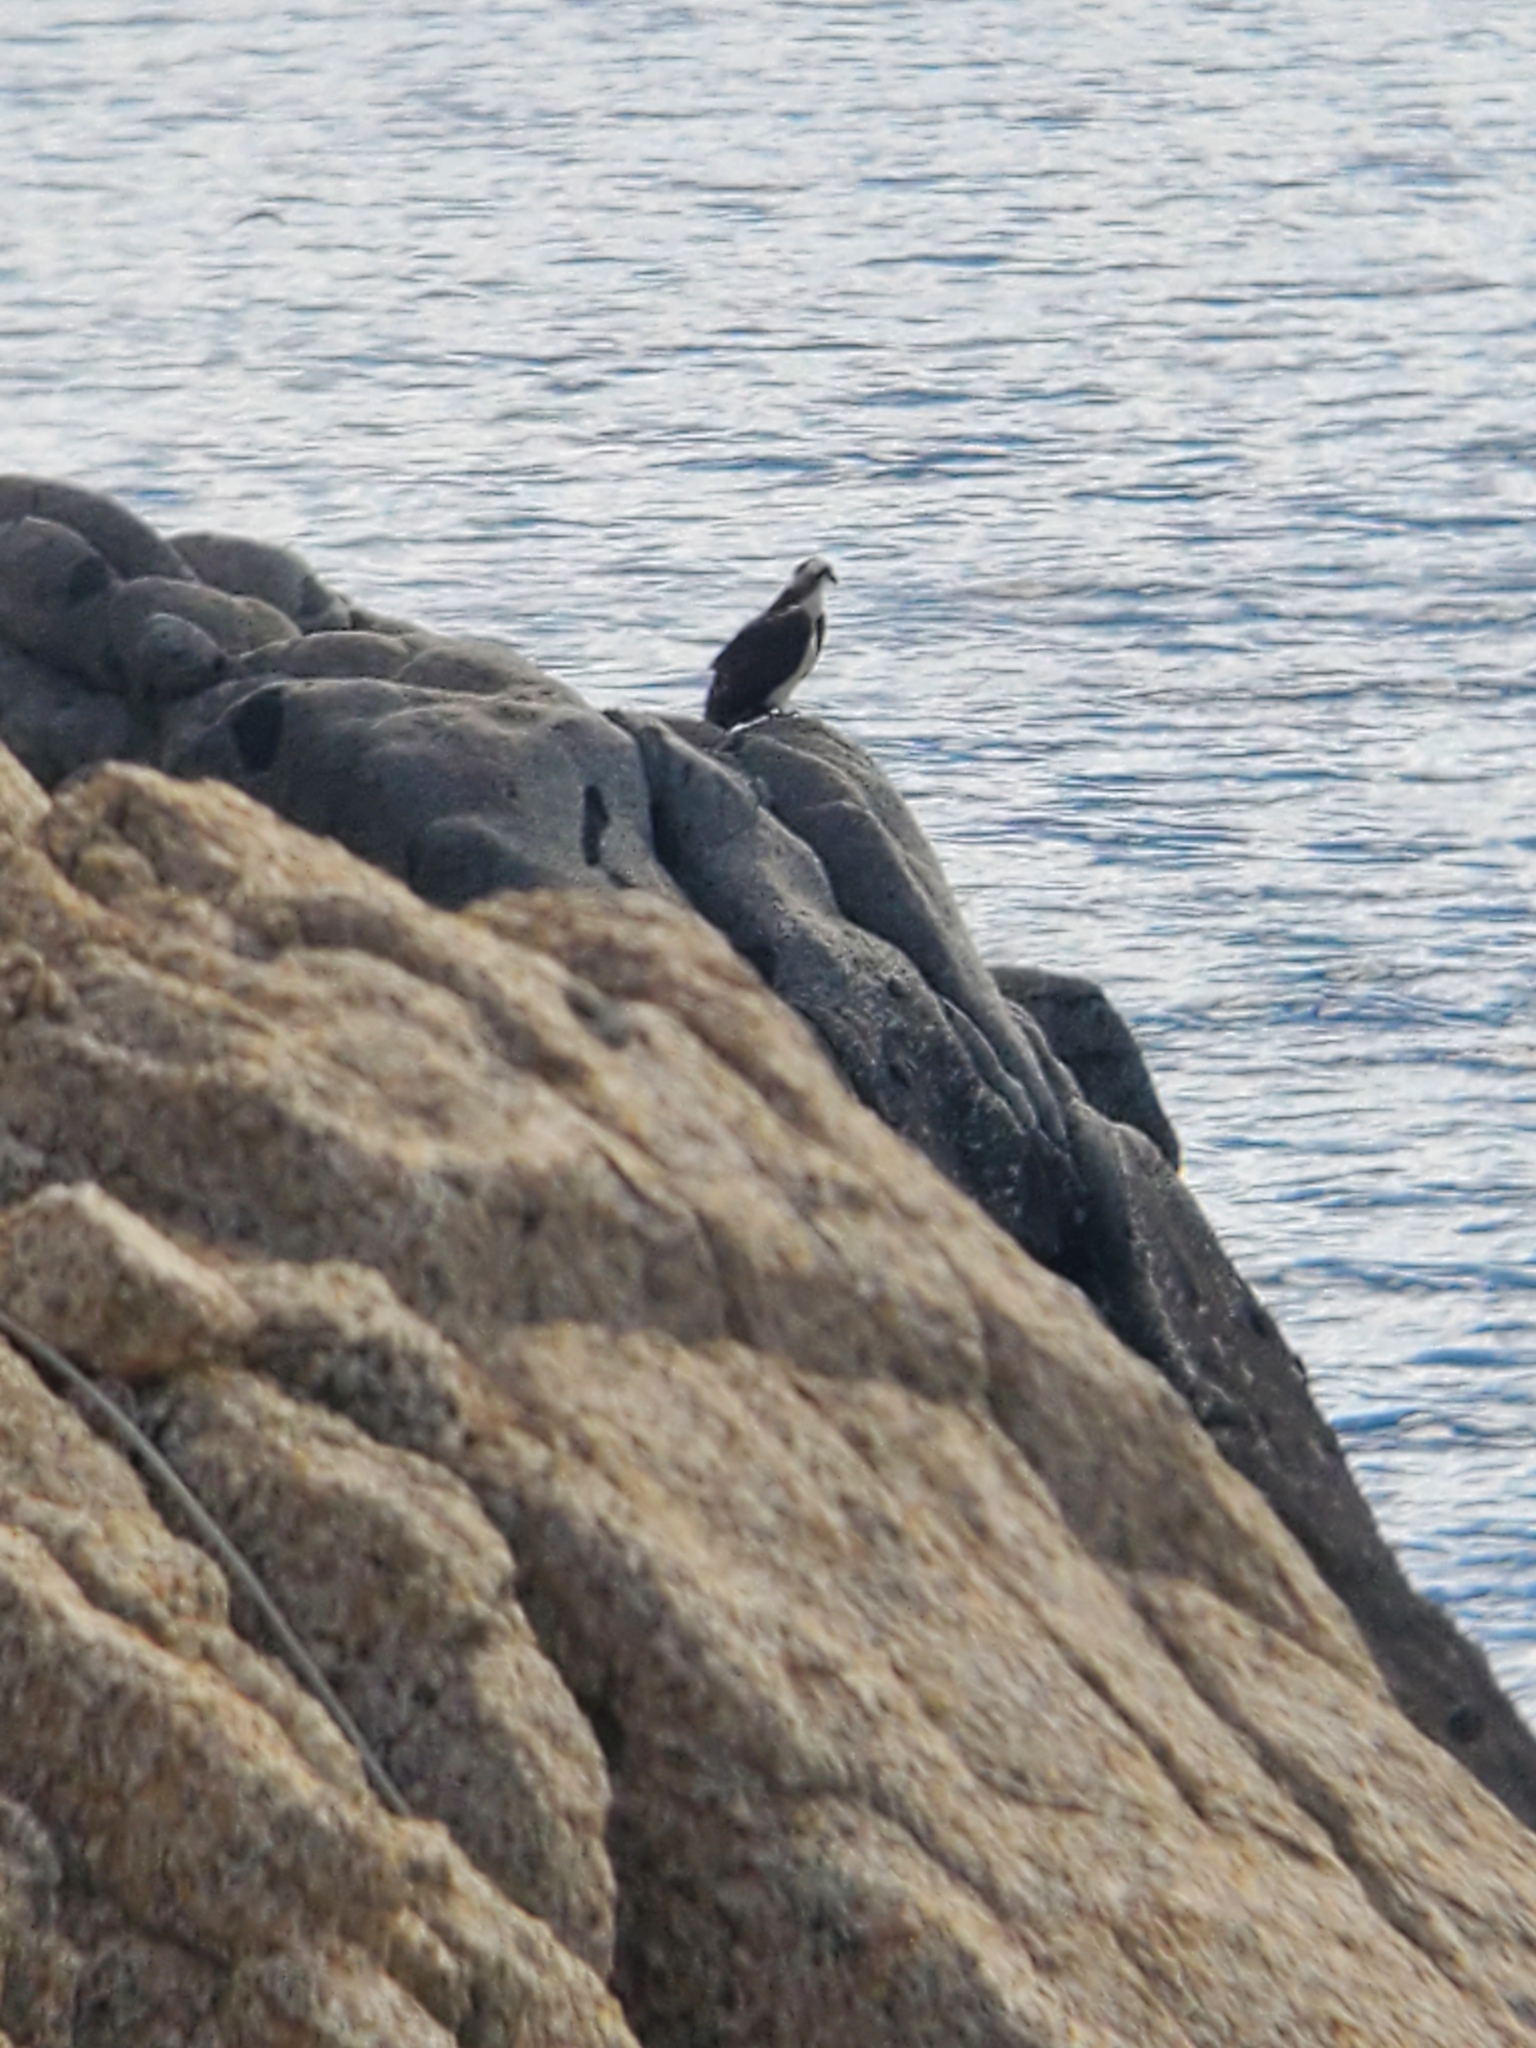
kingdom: Animalia
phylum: Chordata
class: Aves
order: Accipitriformes
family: Pandionidae
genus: Pandion
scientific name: Pandion haliaetus
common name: Osprey
